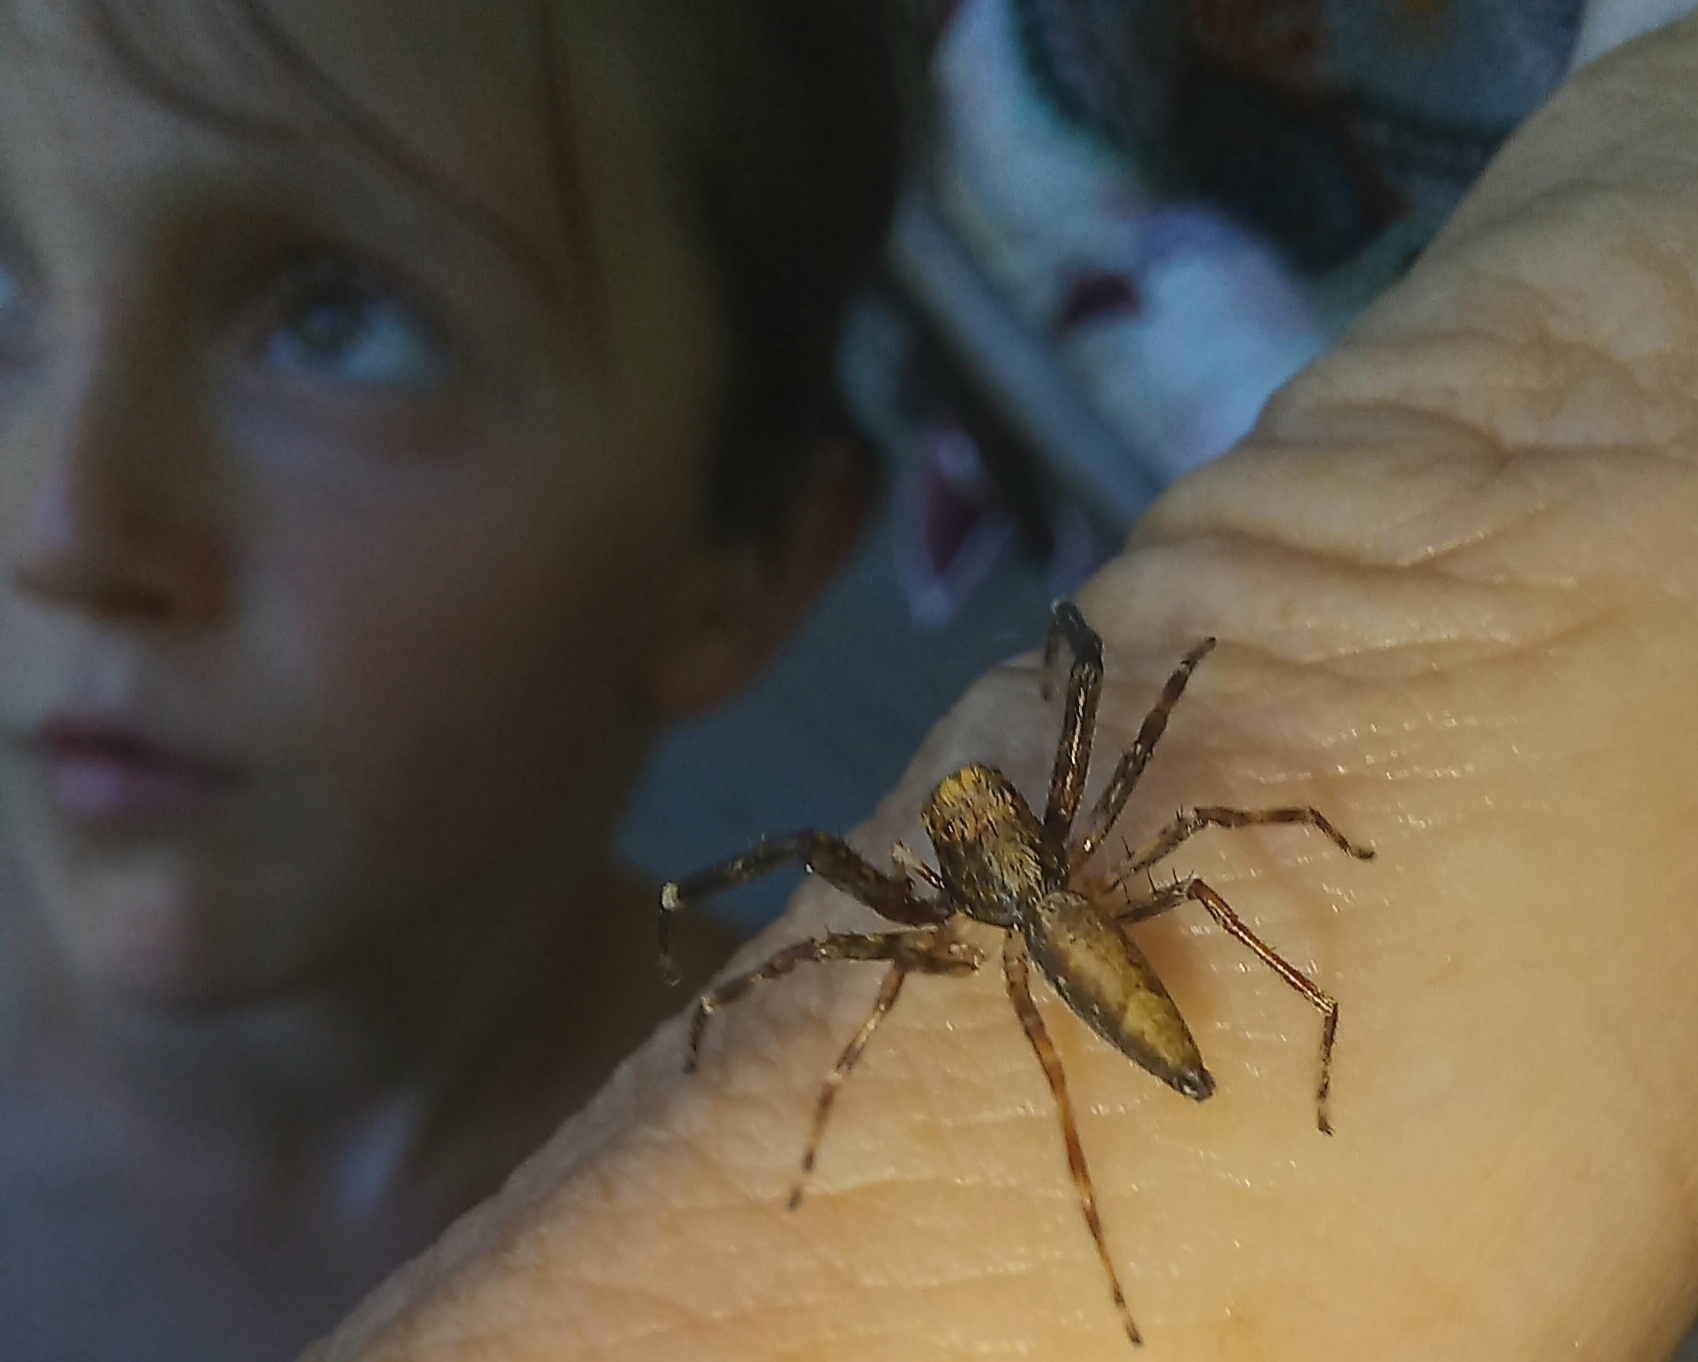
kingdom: Animalia
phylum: Arthropoda
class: Arachnida
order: Araneae
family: Salticidae
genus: Helpis
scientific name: Helpis minitabunda
